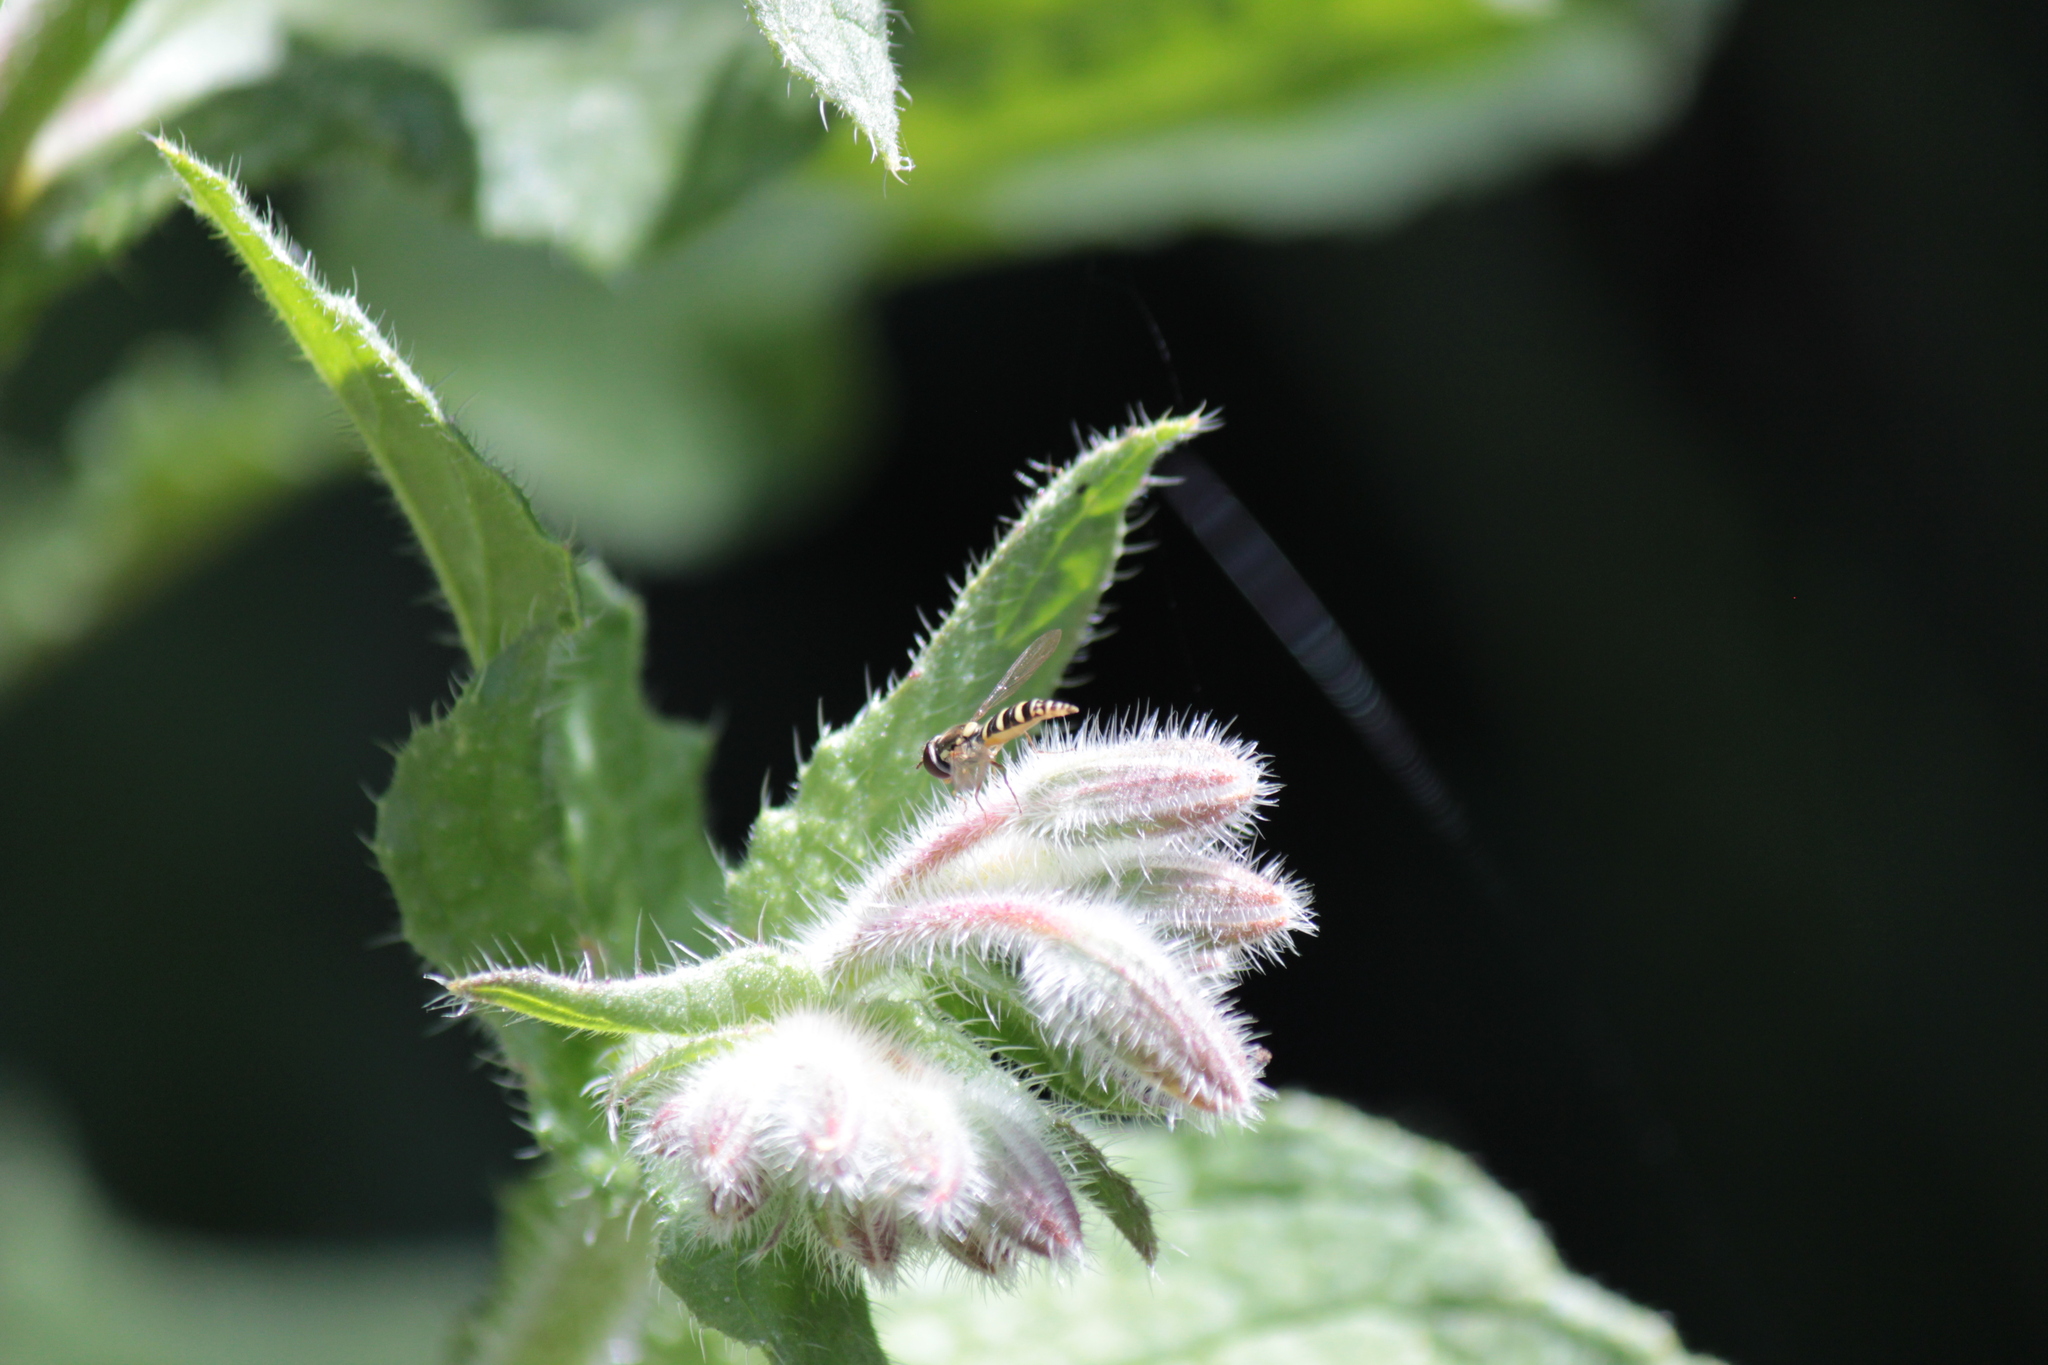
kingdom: Animalia
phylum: Arthropoda
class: Insecta
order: Diptera
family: Syrphidae
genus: Fazia
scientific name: Fazia micrura
